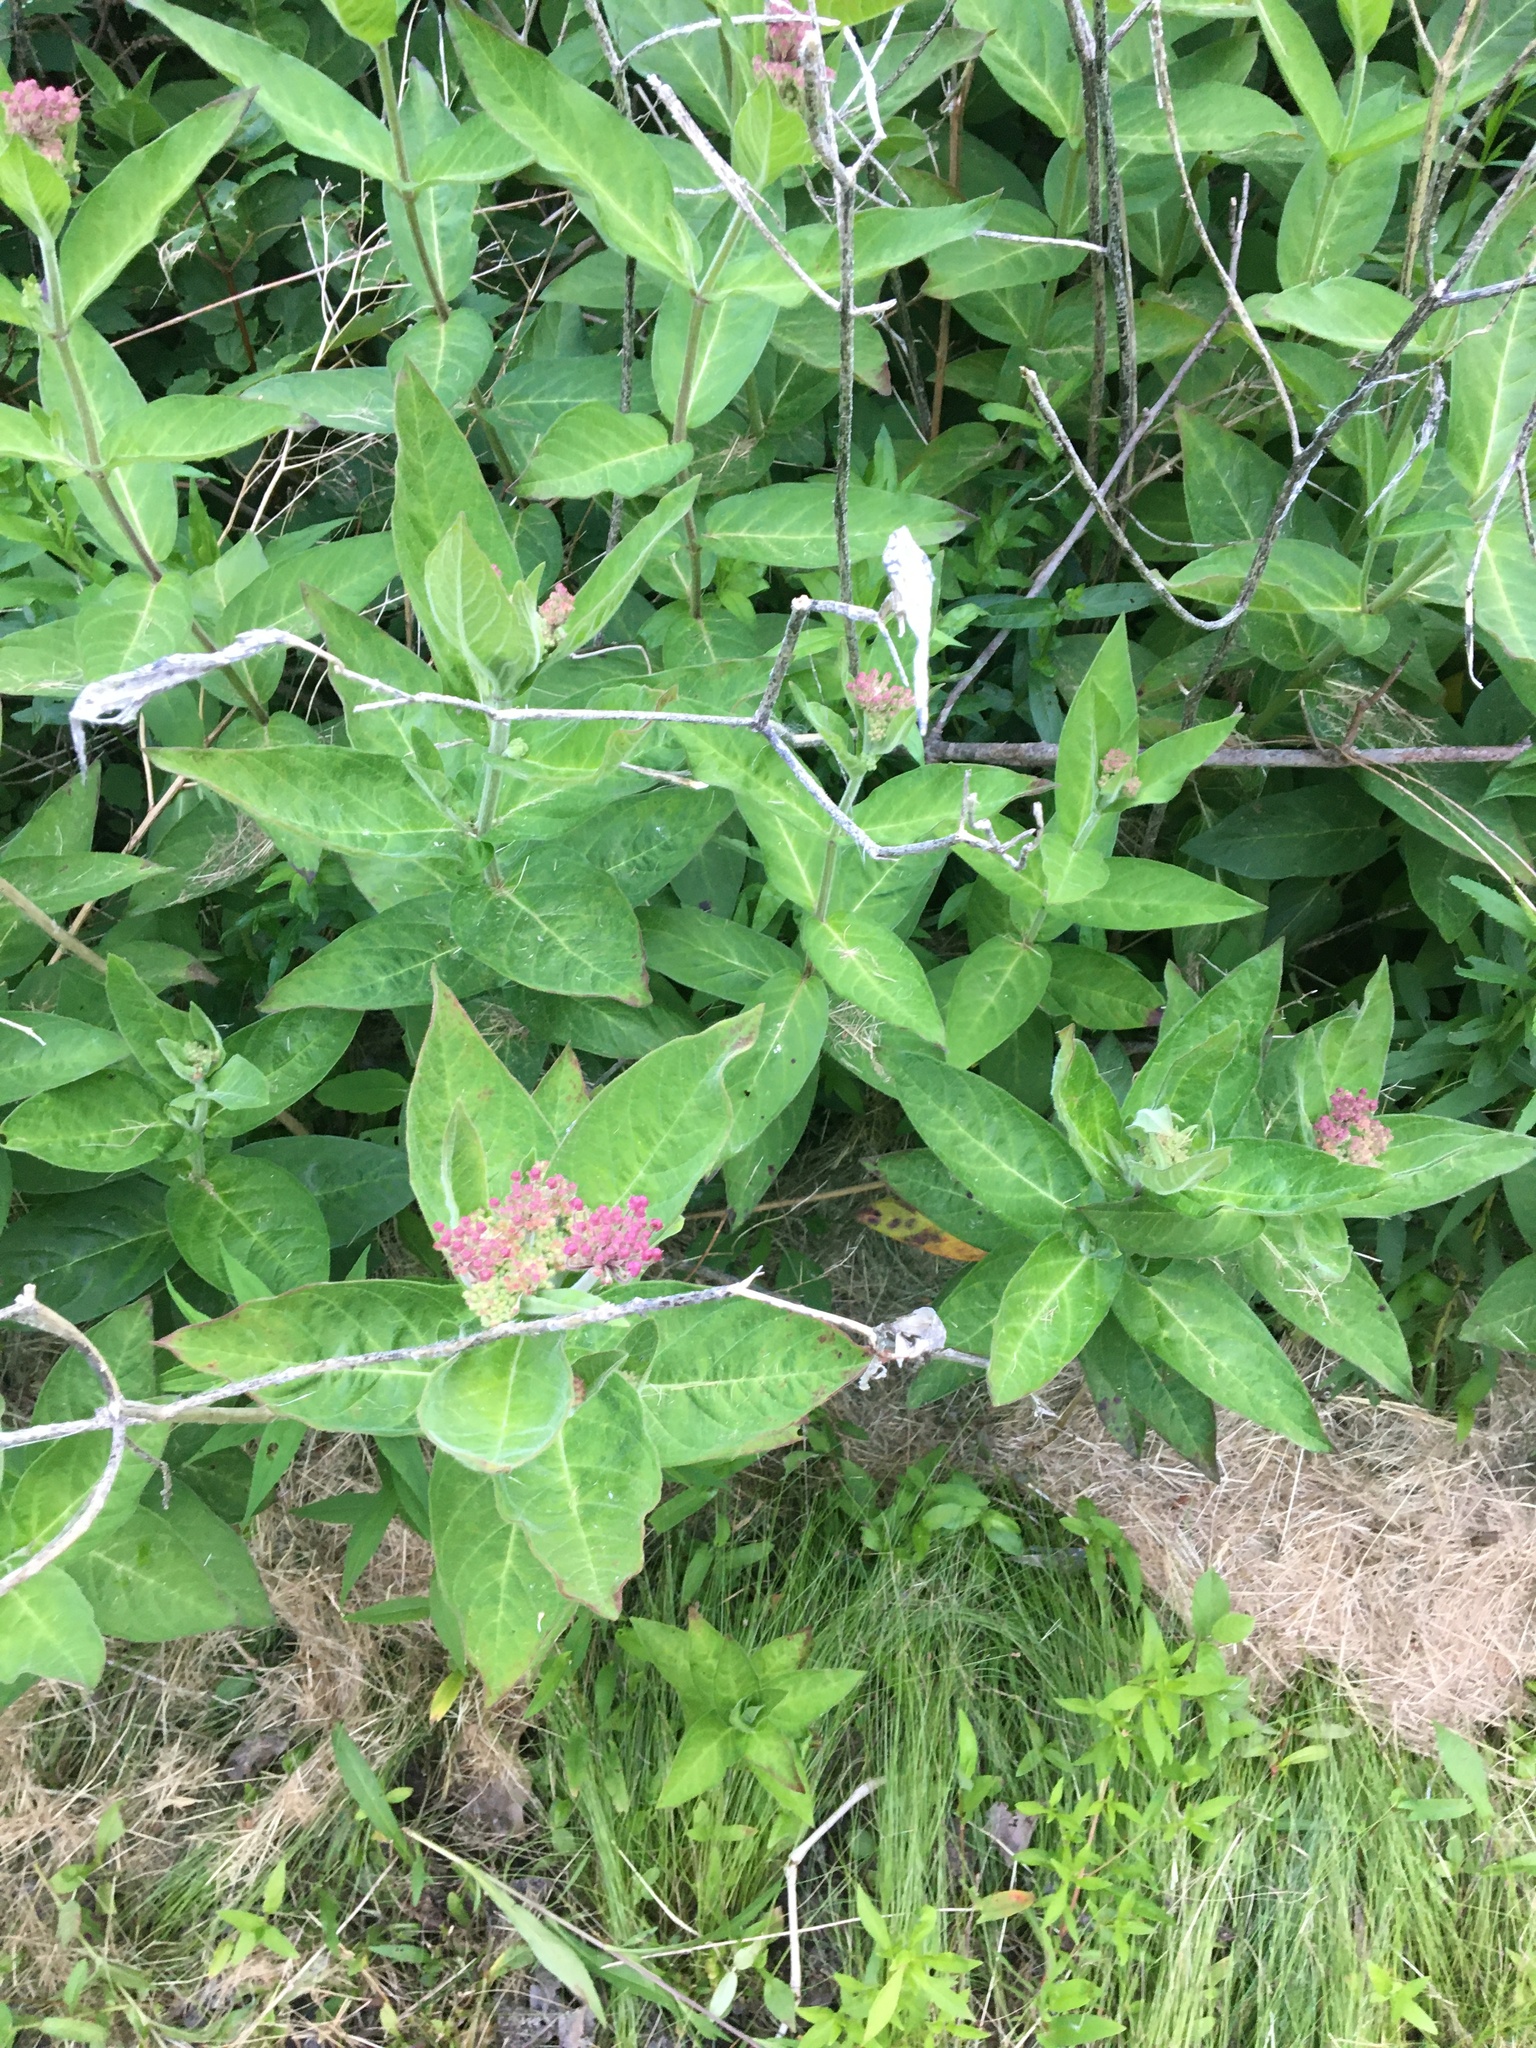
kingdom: Plantae
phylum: Tracheophyta
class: Magnoliopsida
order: Gentianales
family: Apocynaceae
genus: Asclepias
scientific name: Asclepias incarnata
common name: Swamp milkweed
